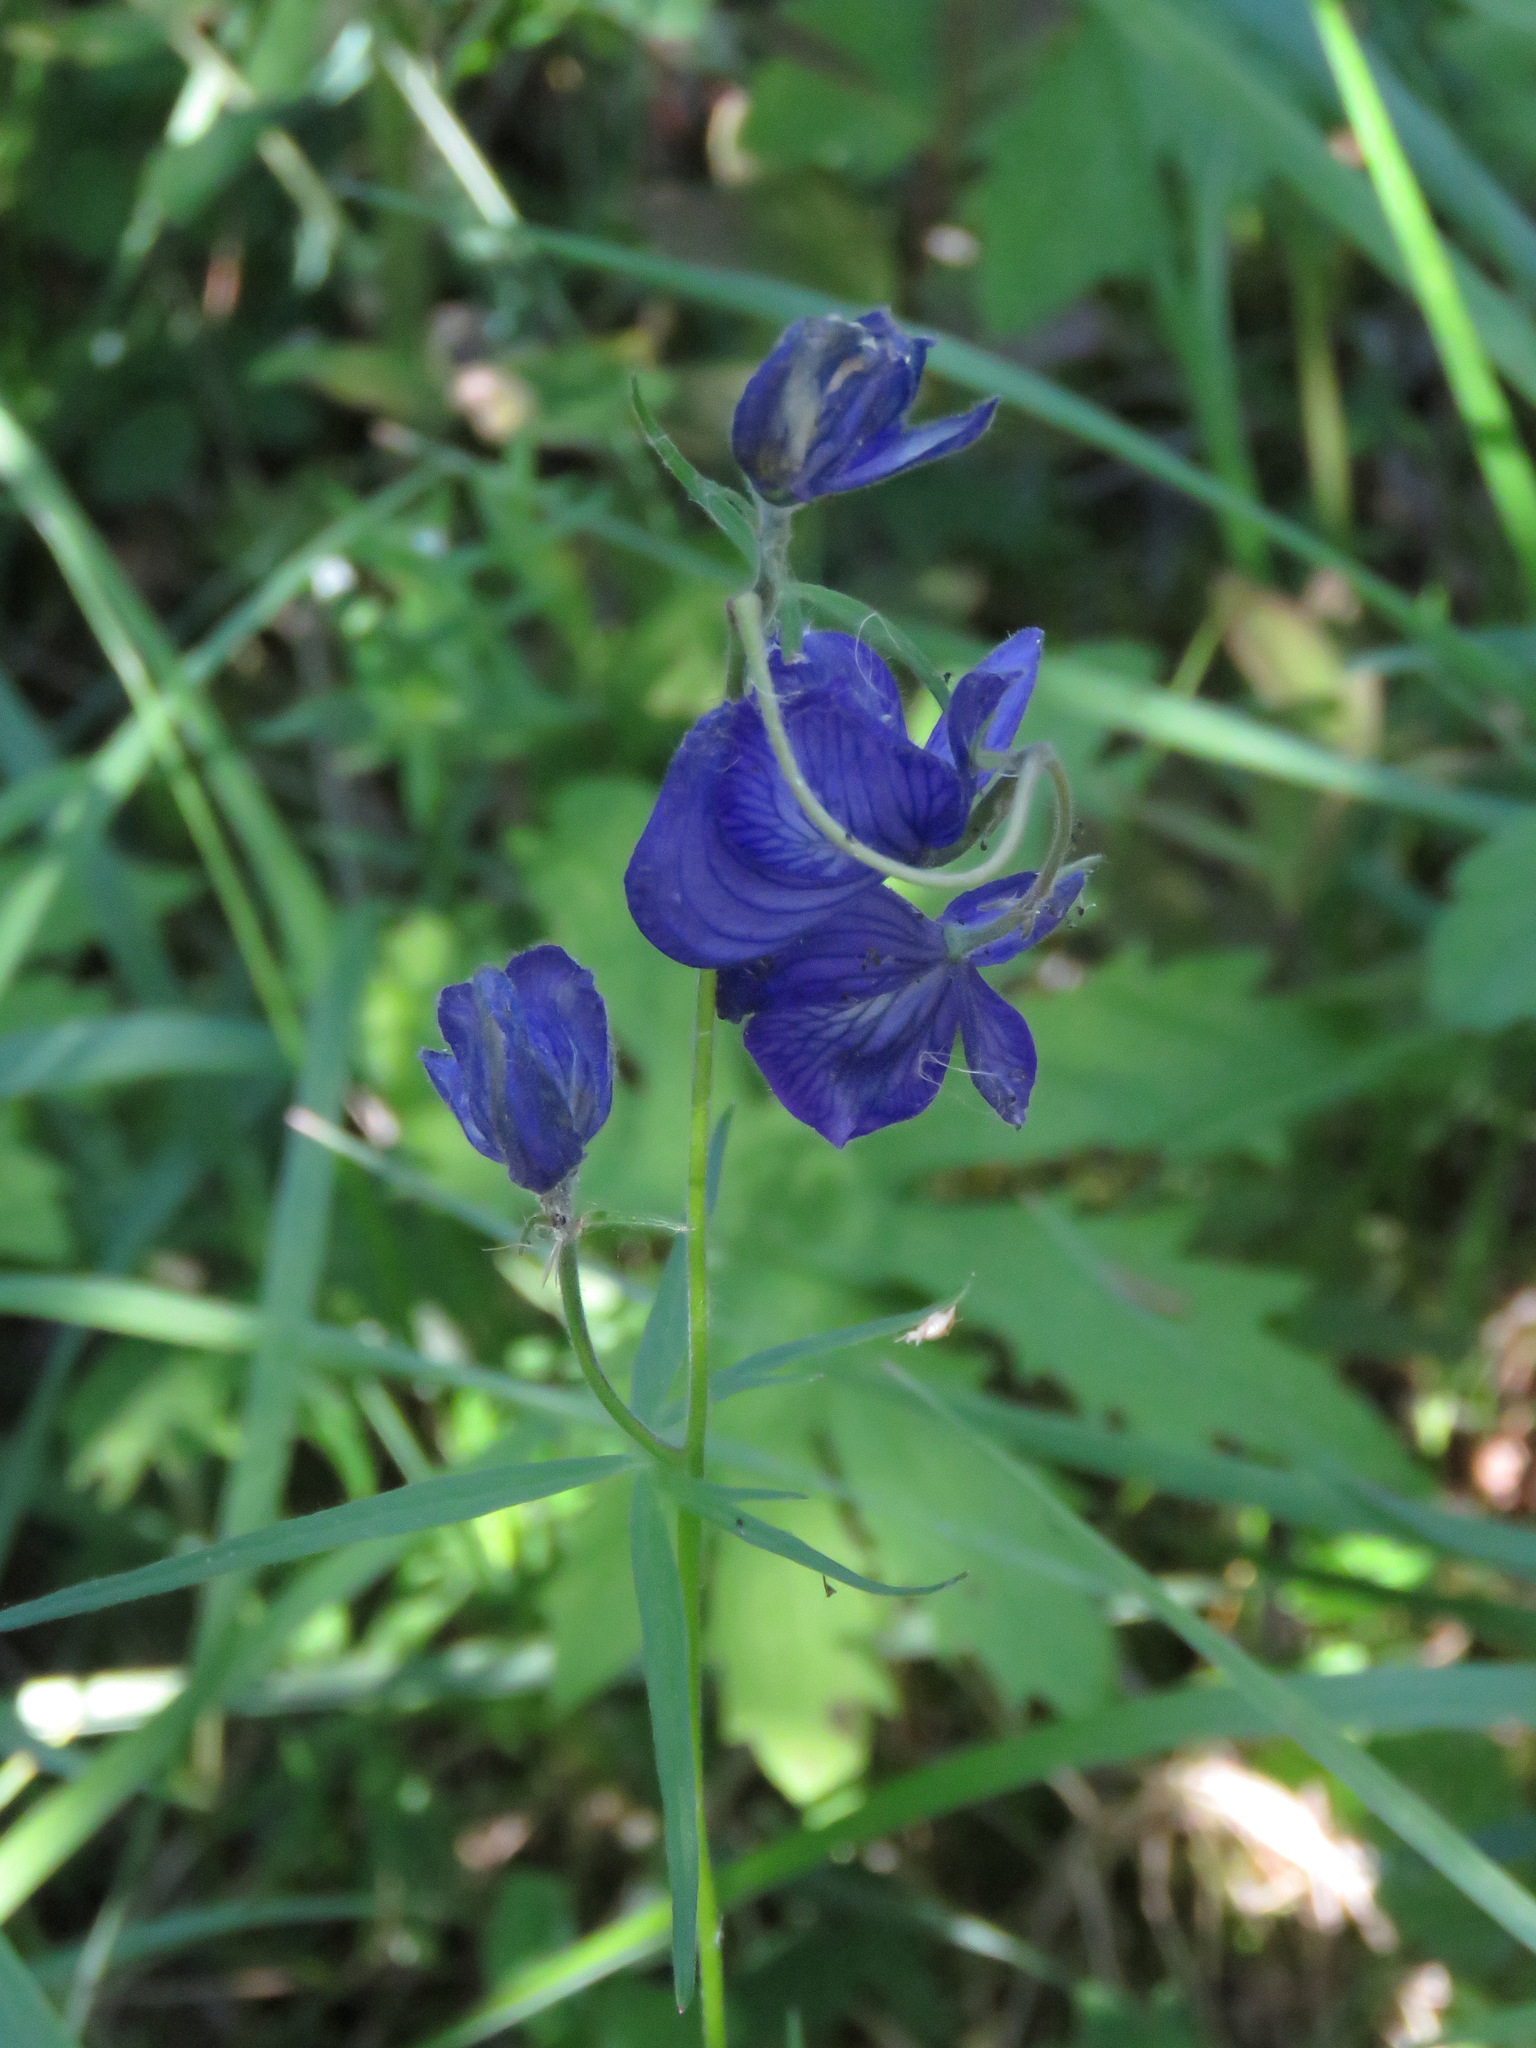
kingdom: Plantae
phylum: Tracheophyta
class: Magnoliopsida
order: Ranunculales
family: Ranunculaceae
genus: Aconitum
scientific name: Aconitum delphiniifolium
